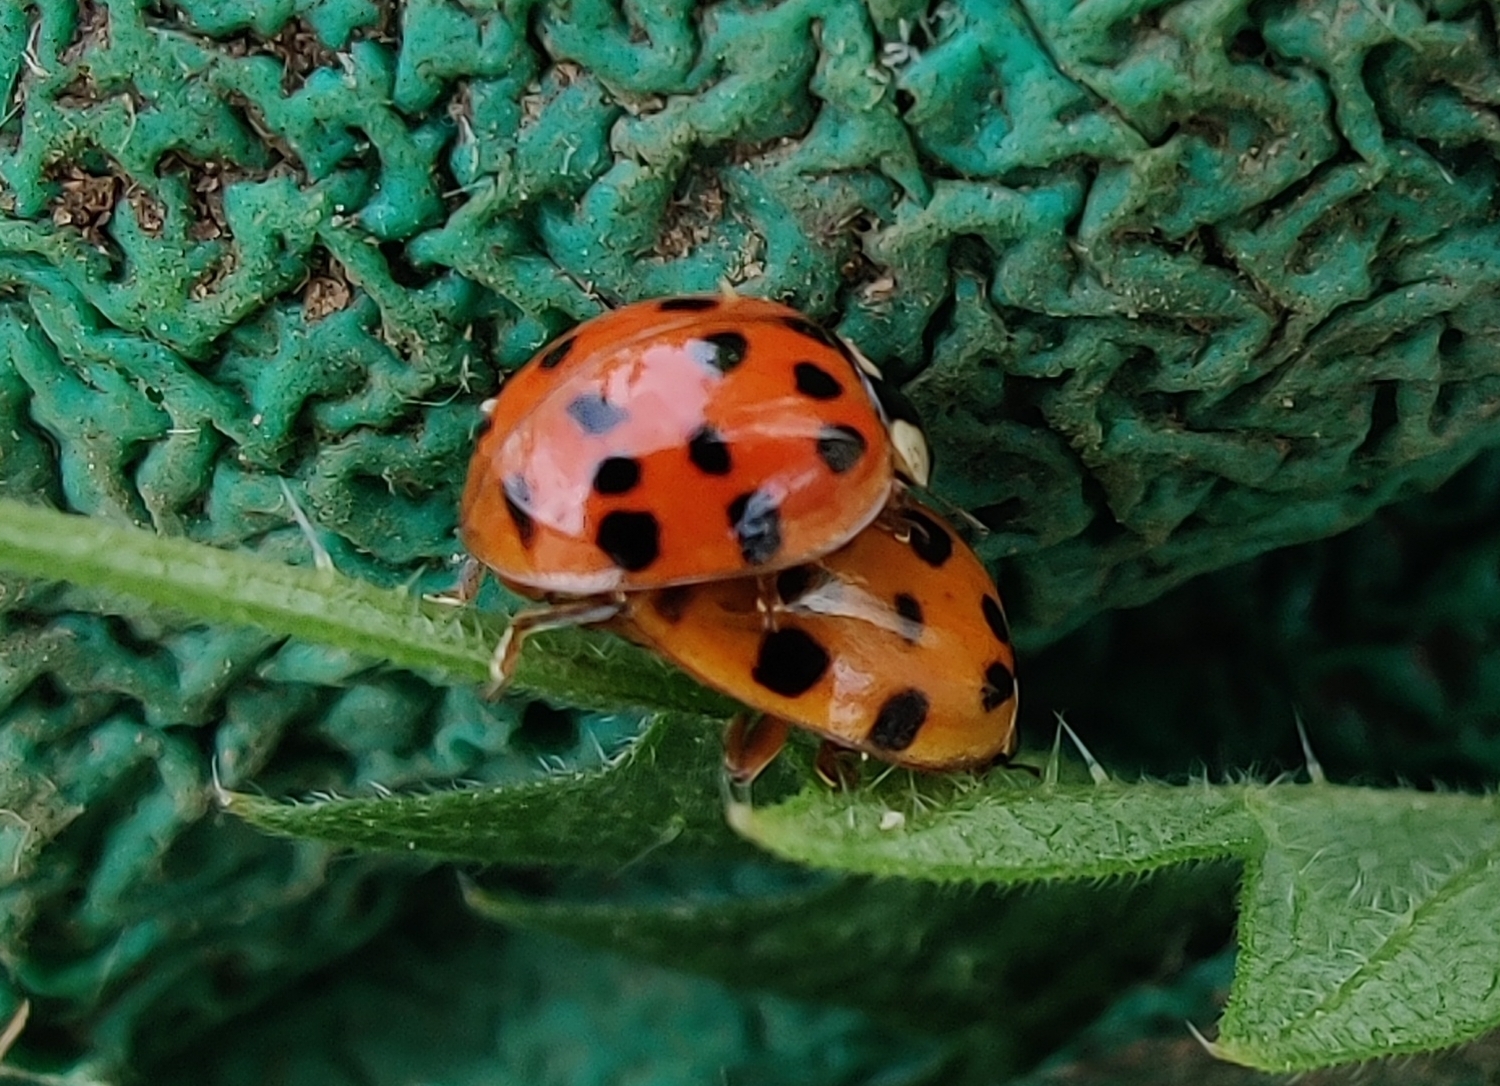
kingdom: Animalia
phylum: Arthropoda
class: Insecta
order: Coleoptera
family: Coccinellidae
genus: Harmonia
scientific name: Harmonia axyridis
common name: Harlequin ladybird
